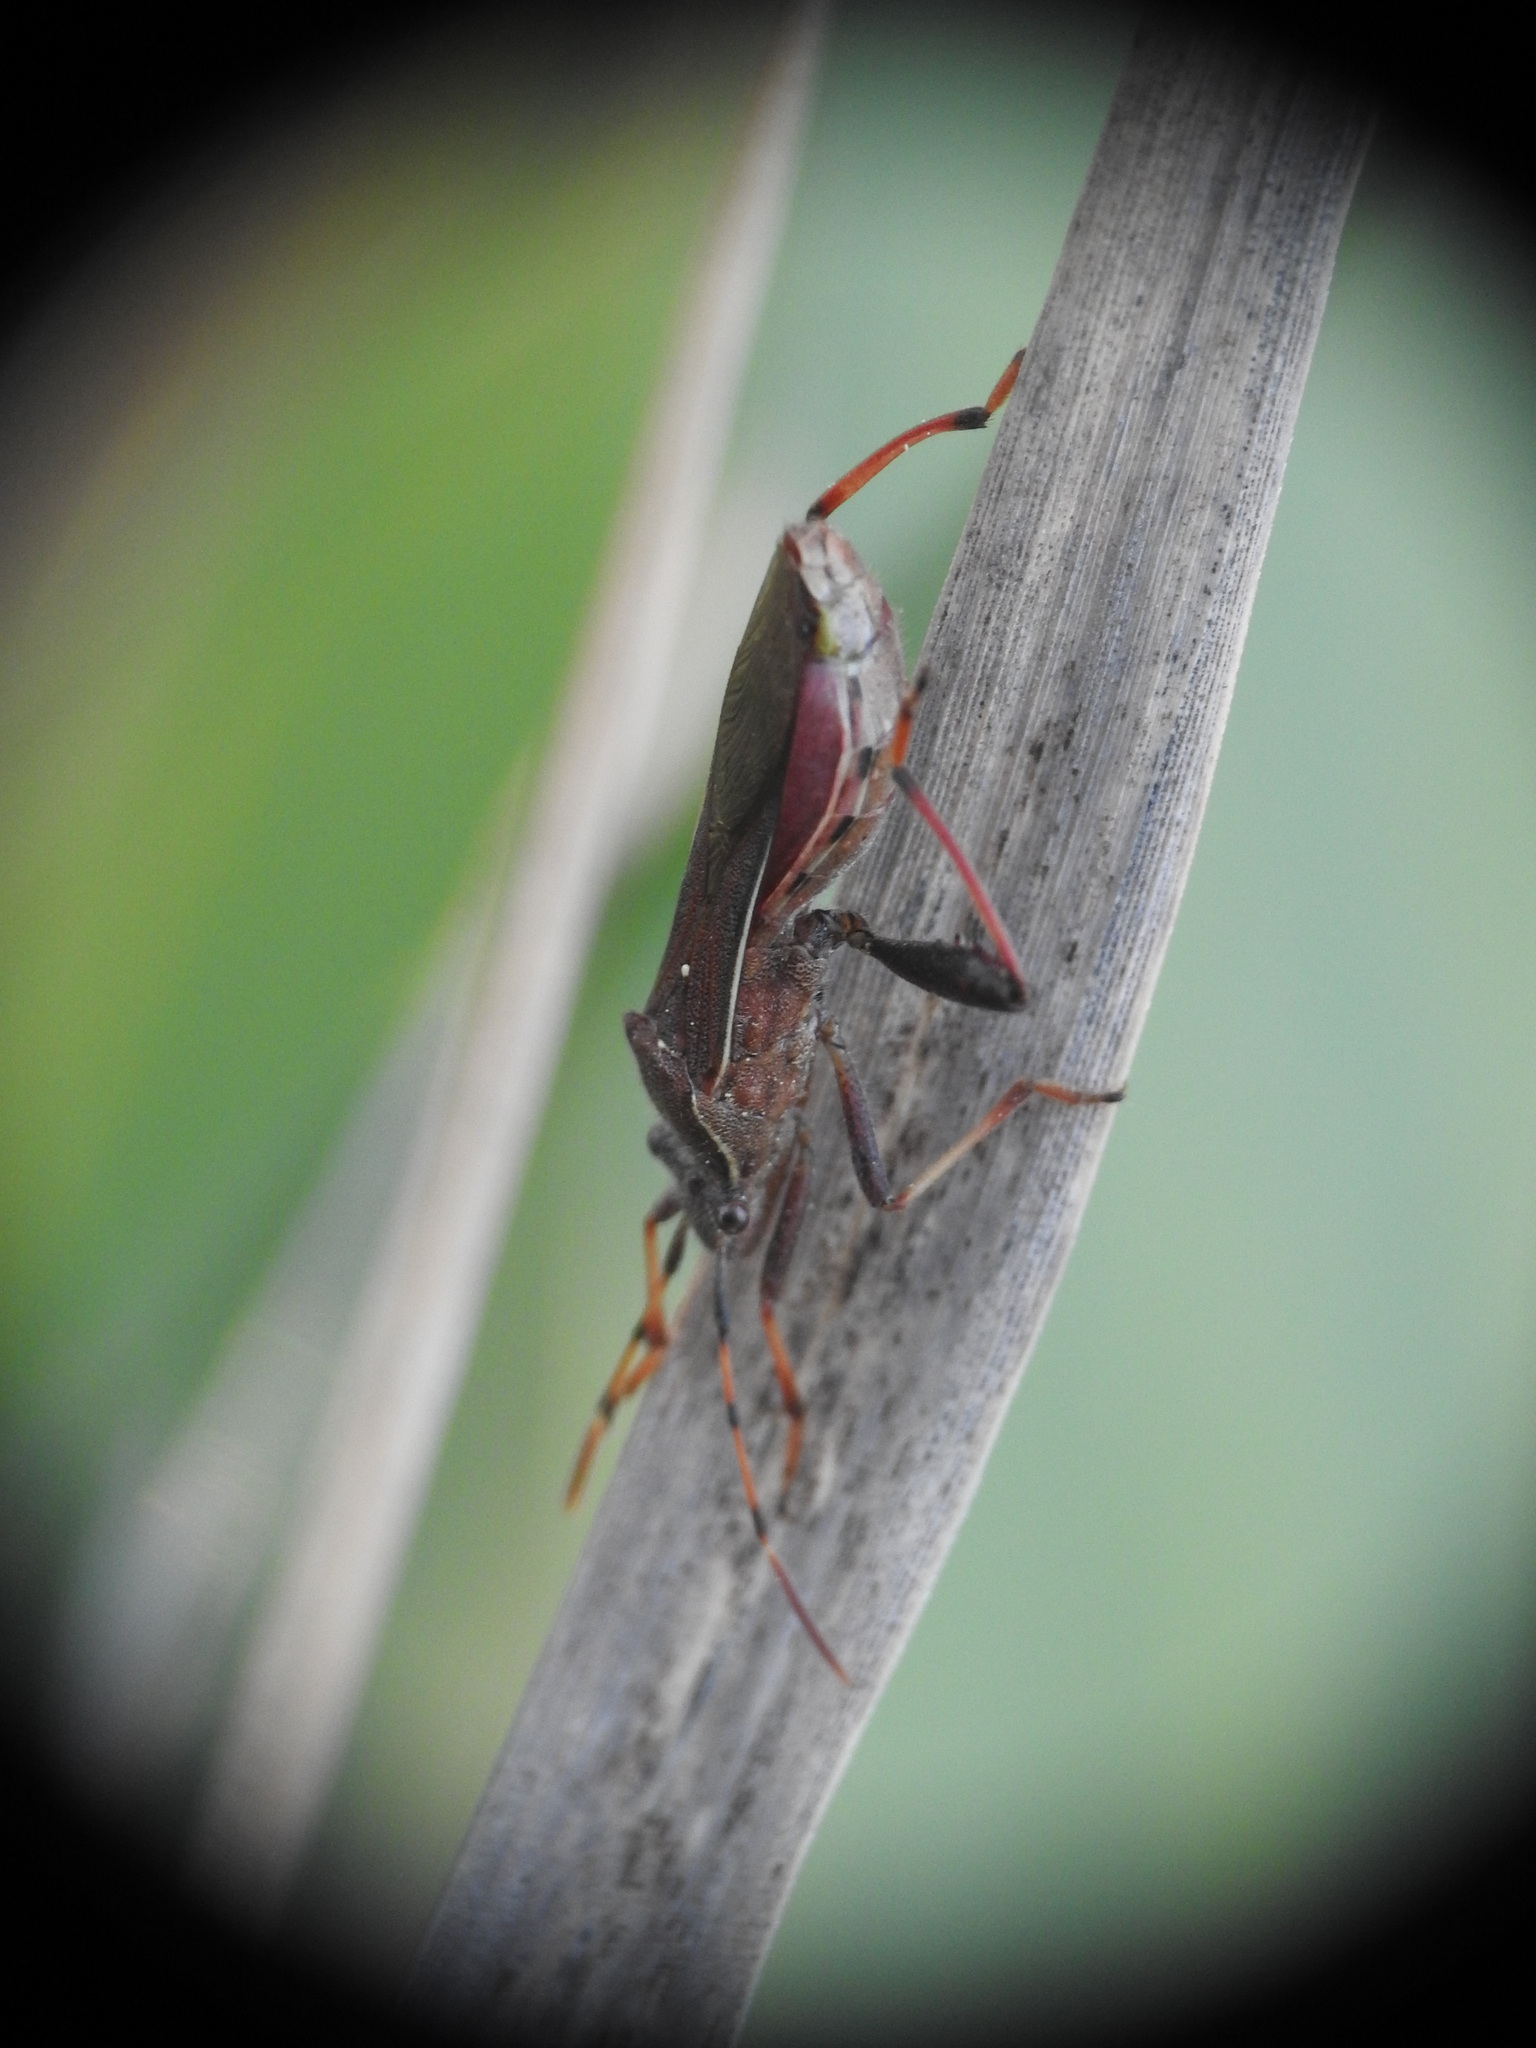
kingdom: Animalia
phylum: Arthropoda
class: Insecta
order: Hemiptera
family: Alydidae
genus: Camptopus
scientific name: Camptopus lateralis
